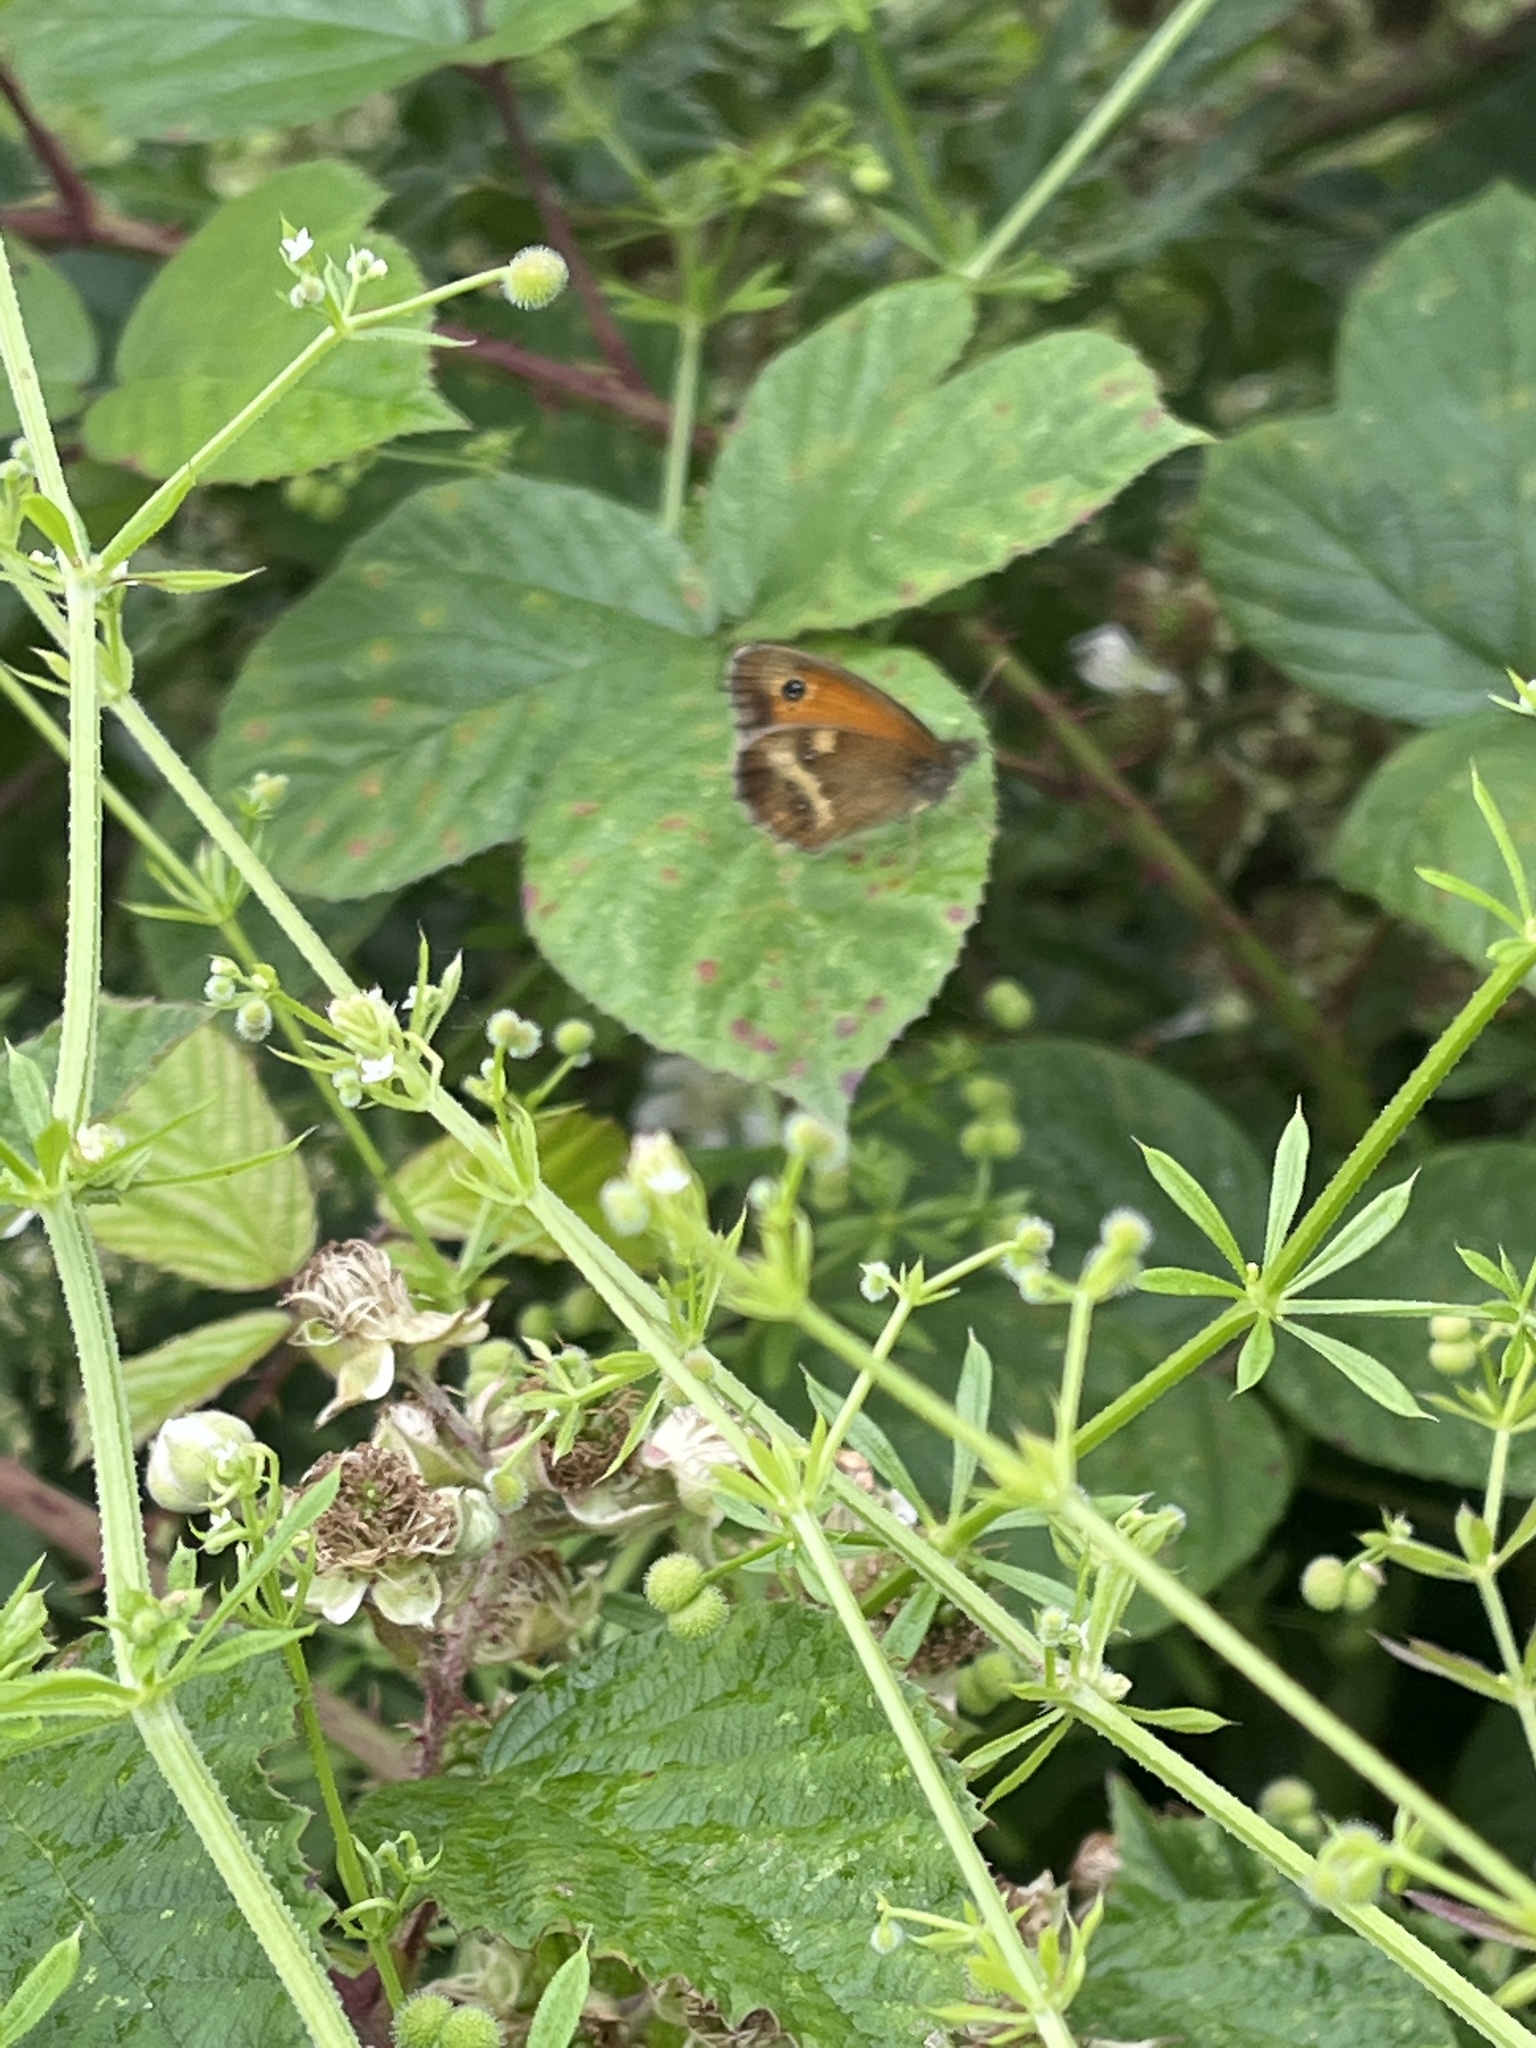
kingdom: Animalia
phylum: Arthropoda
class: Insecta
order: Lepidoptera
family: Nymphalidae
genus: Pyronia
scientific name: Pyronia tithonus
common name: Gatekeeper
